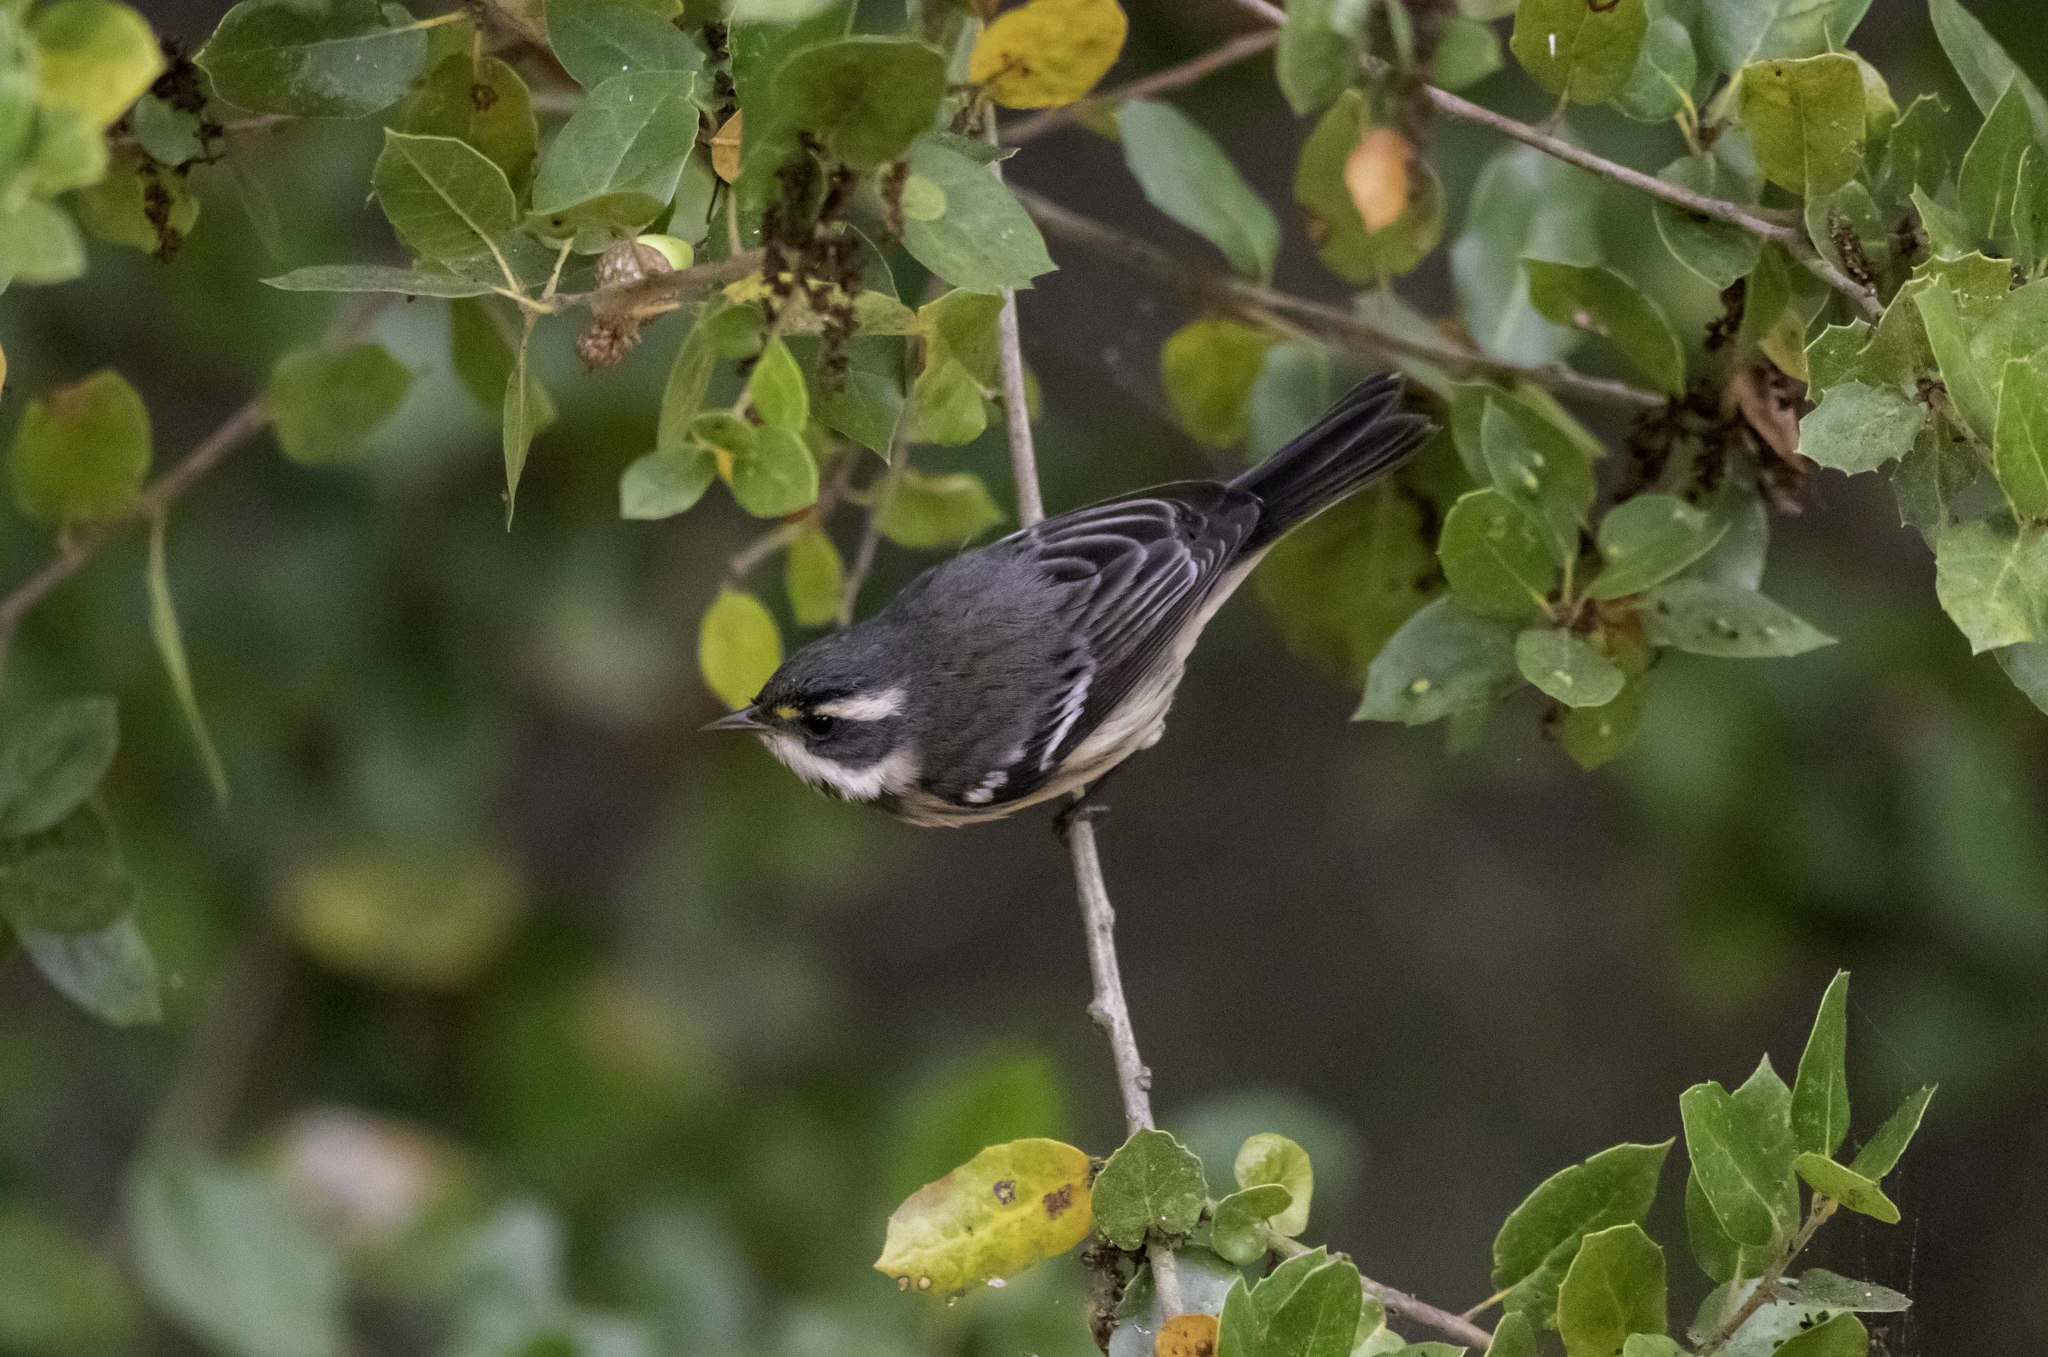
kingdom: Animalia
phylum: Chordata
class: Aves
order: Passeriformes
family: Parulidae
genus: Setophaga
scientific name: Setophaga nigrescens
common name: Black-throated gray warbler
